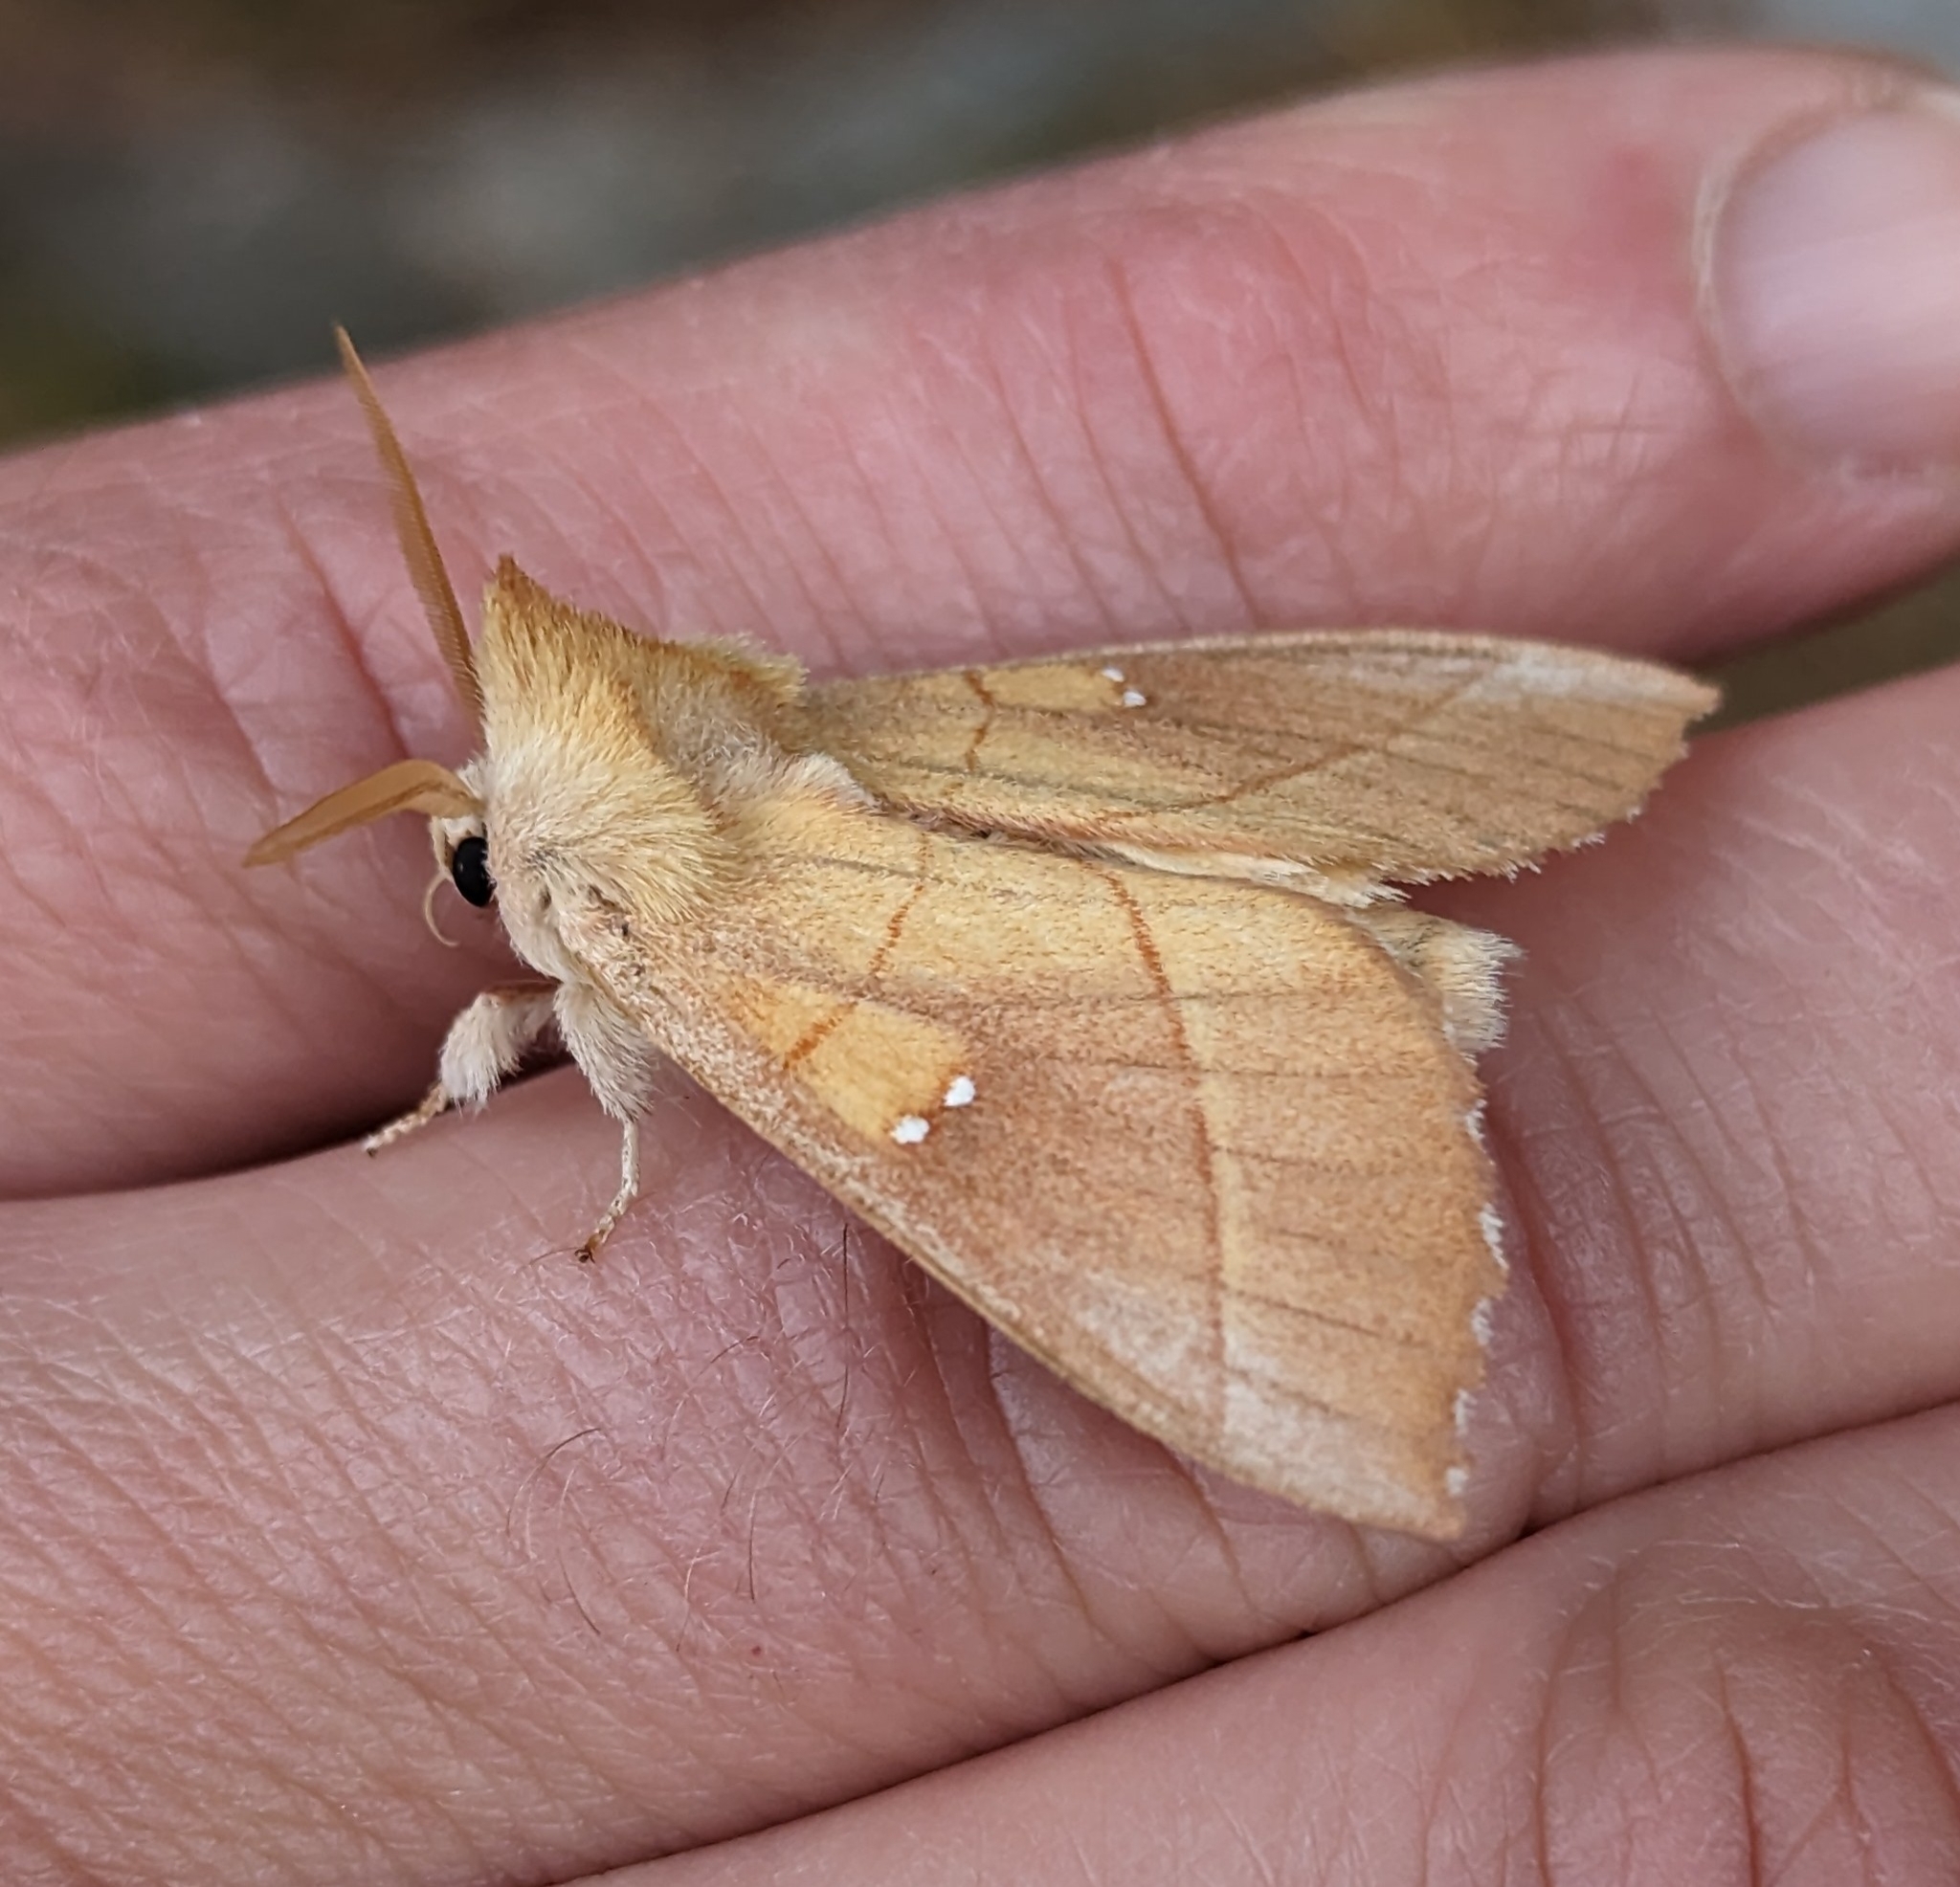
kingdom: Animalia
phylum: Arthropoda
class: Insecta
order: Lepidoptera
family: Notodontidae
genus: Nadata
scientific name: Nadata gibbosa
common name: White-dotted prominent
